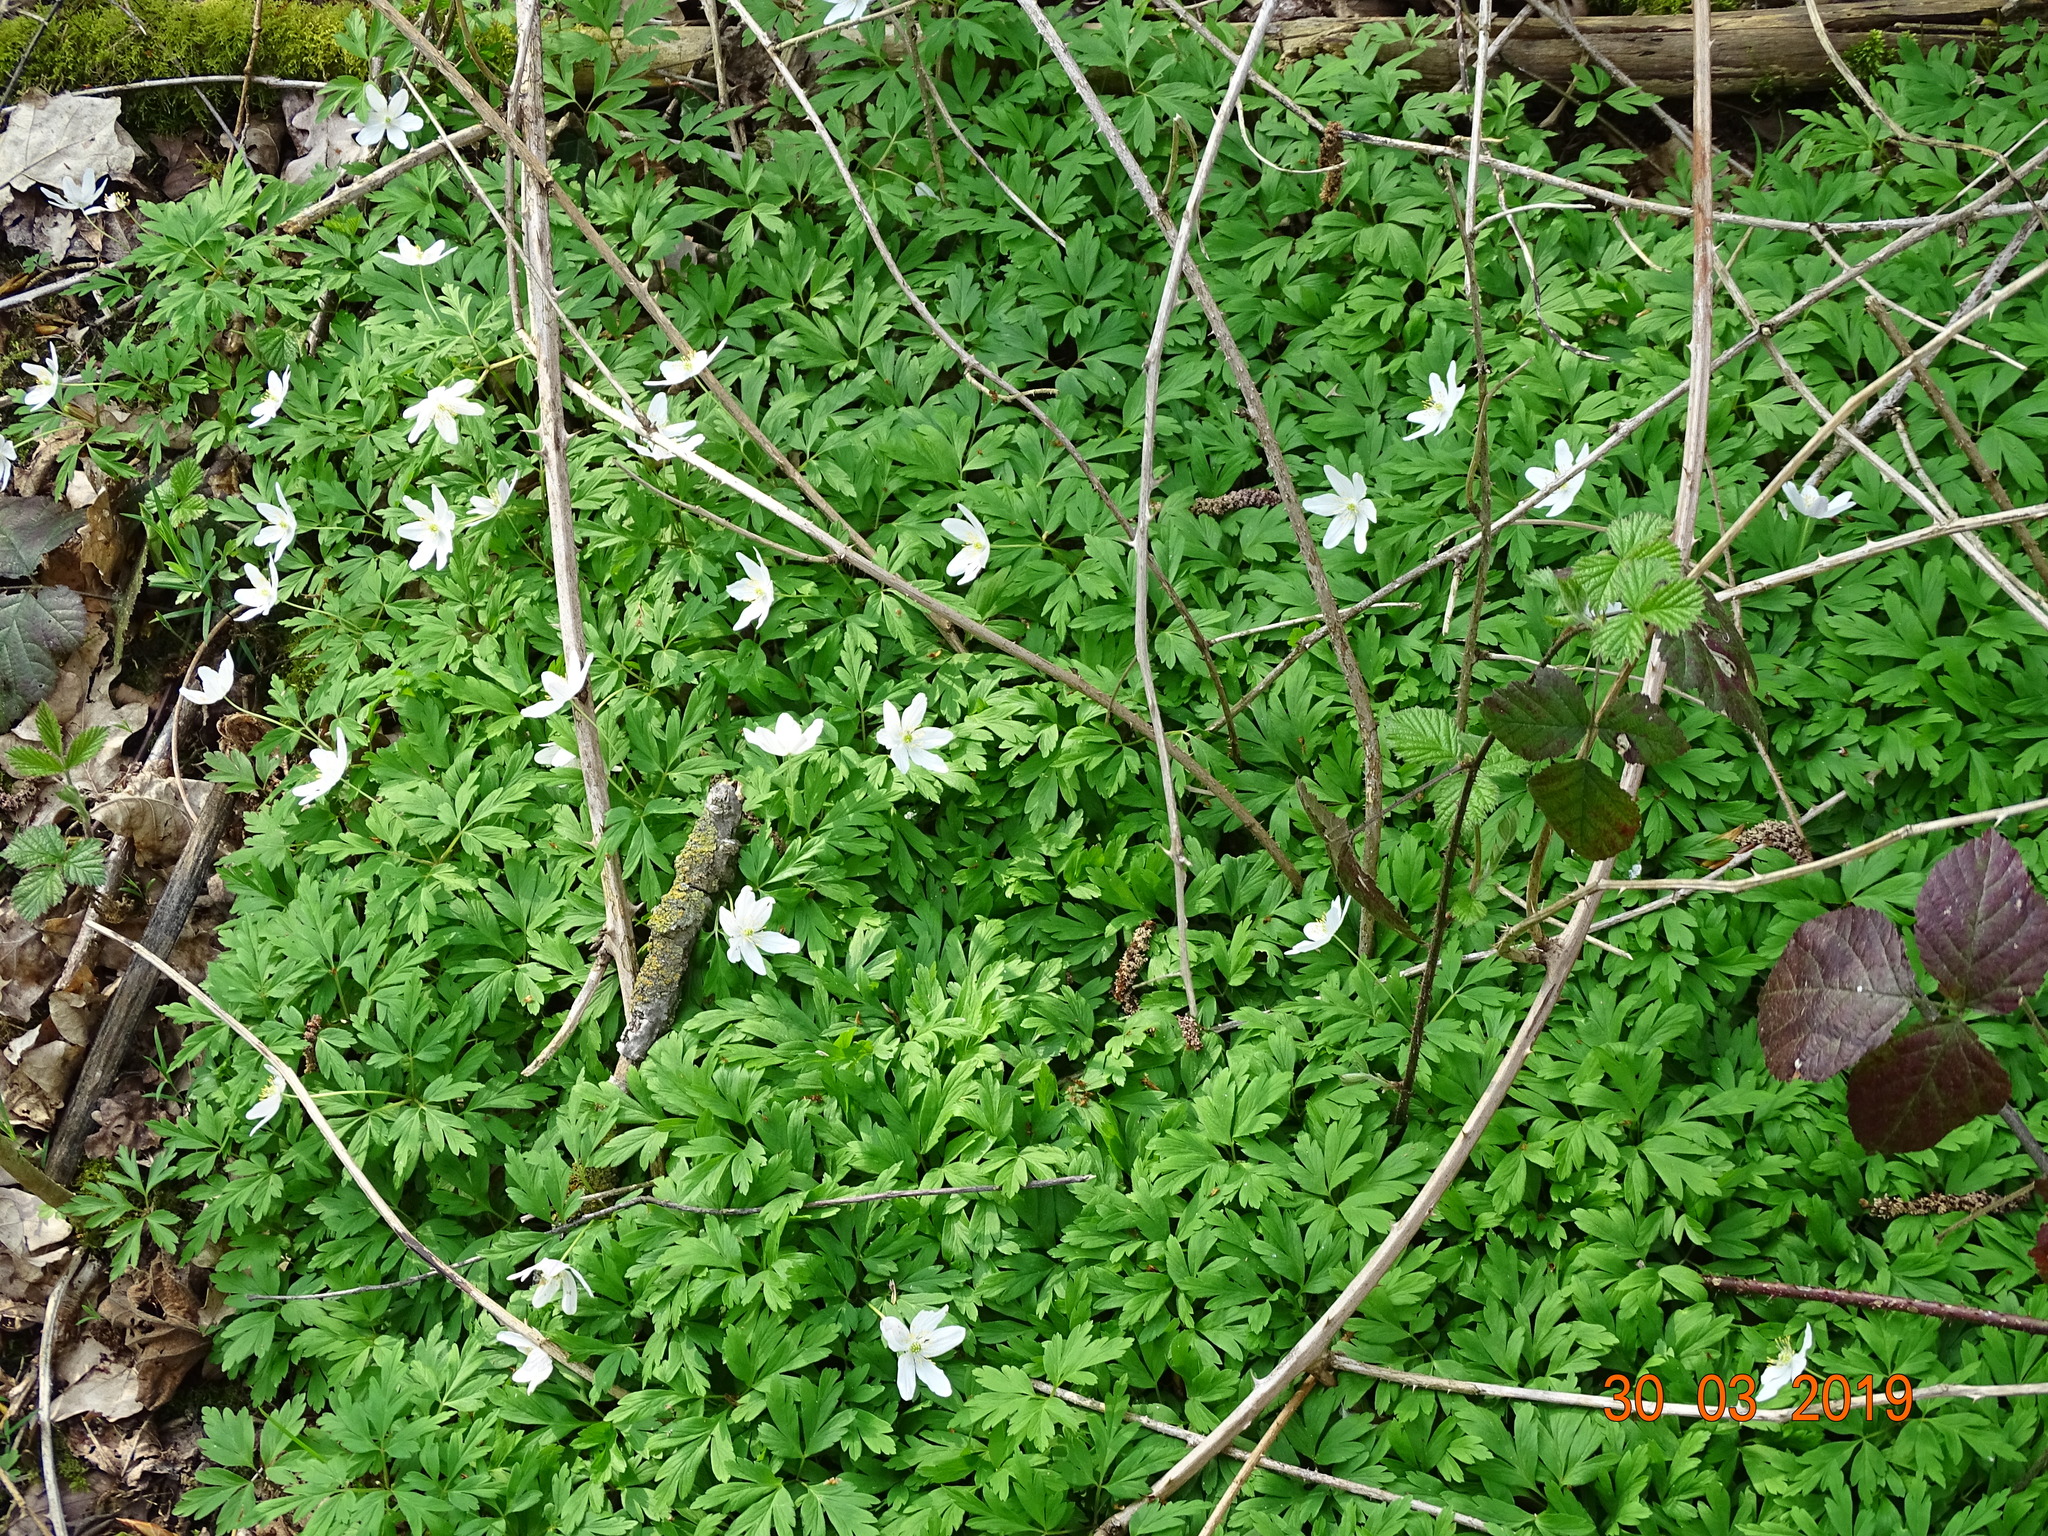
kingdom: Plantae
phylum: Tracheophyta
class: Magnoliopsida
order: Ranunculales
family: Ranunculaceae
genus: Anemone
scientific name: Anemone nemorosa
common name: Wood anemone
